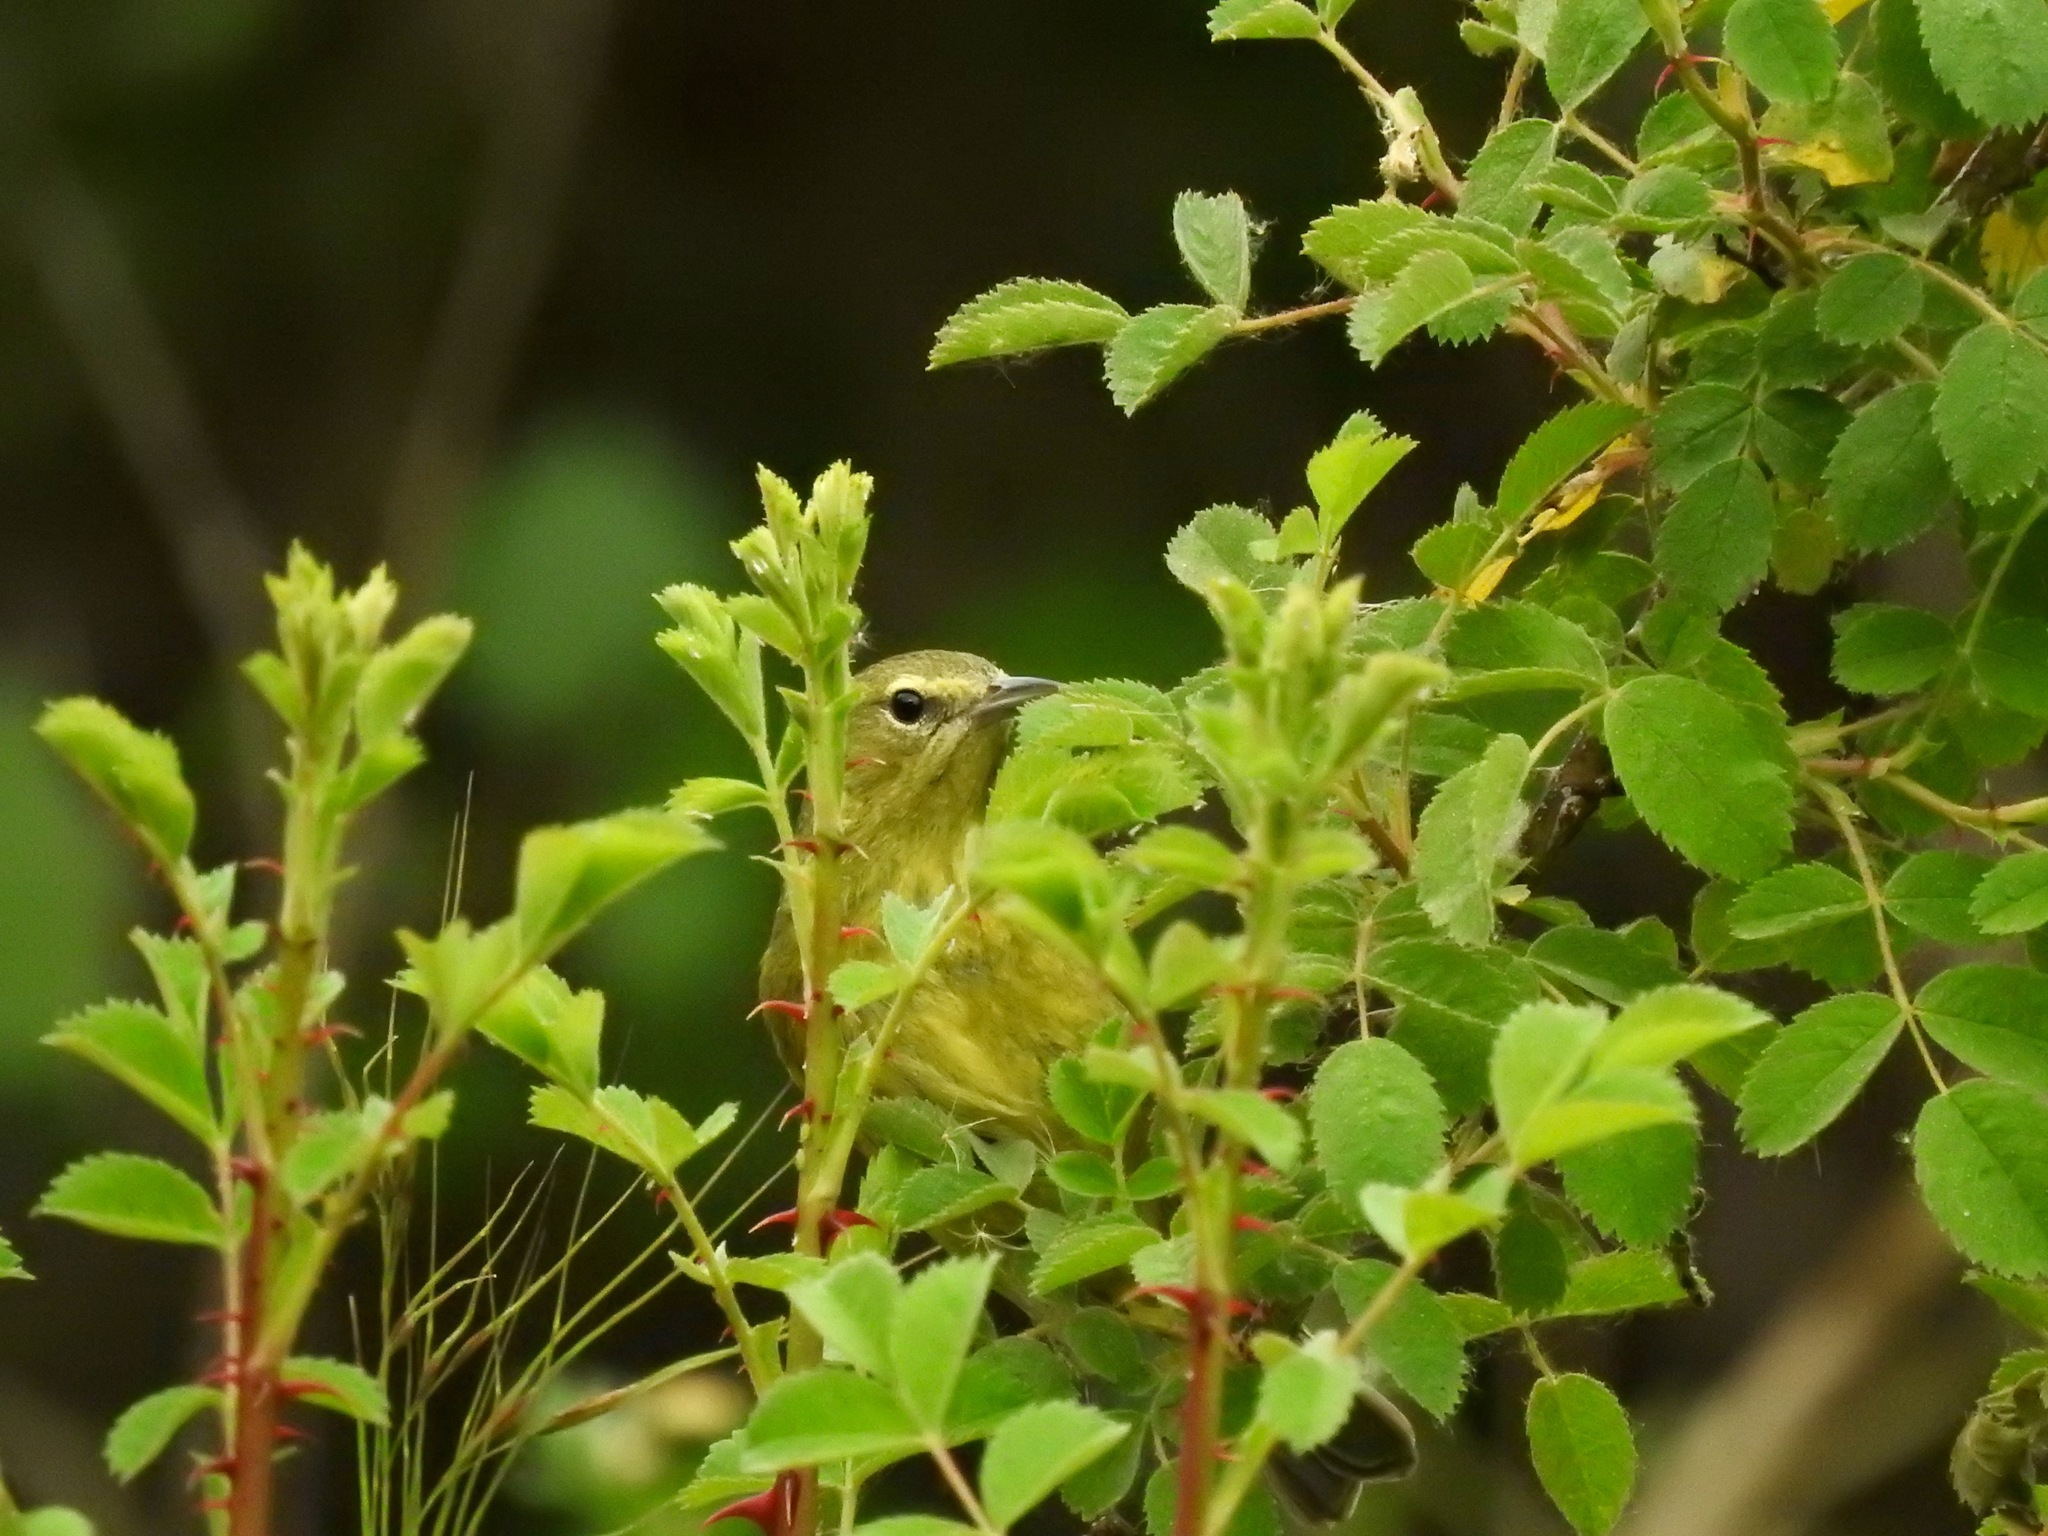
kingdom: Animalia
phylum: Chordata
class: Aves
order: Passeriformes
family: Parulidae
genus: Leiothlypis
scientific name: Leiothlypis celata
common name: Orange-crowned warbler
